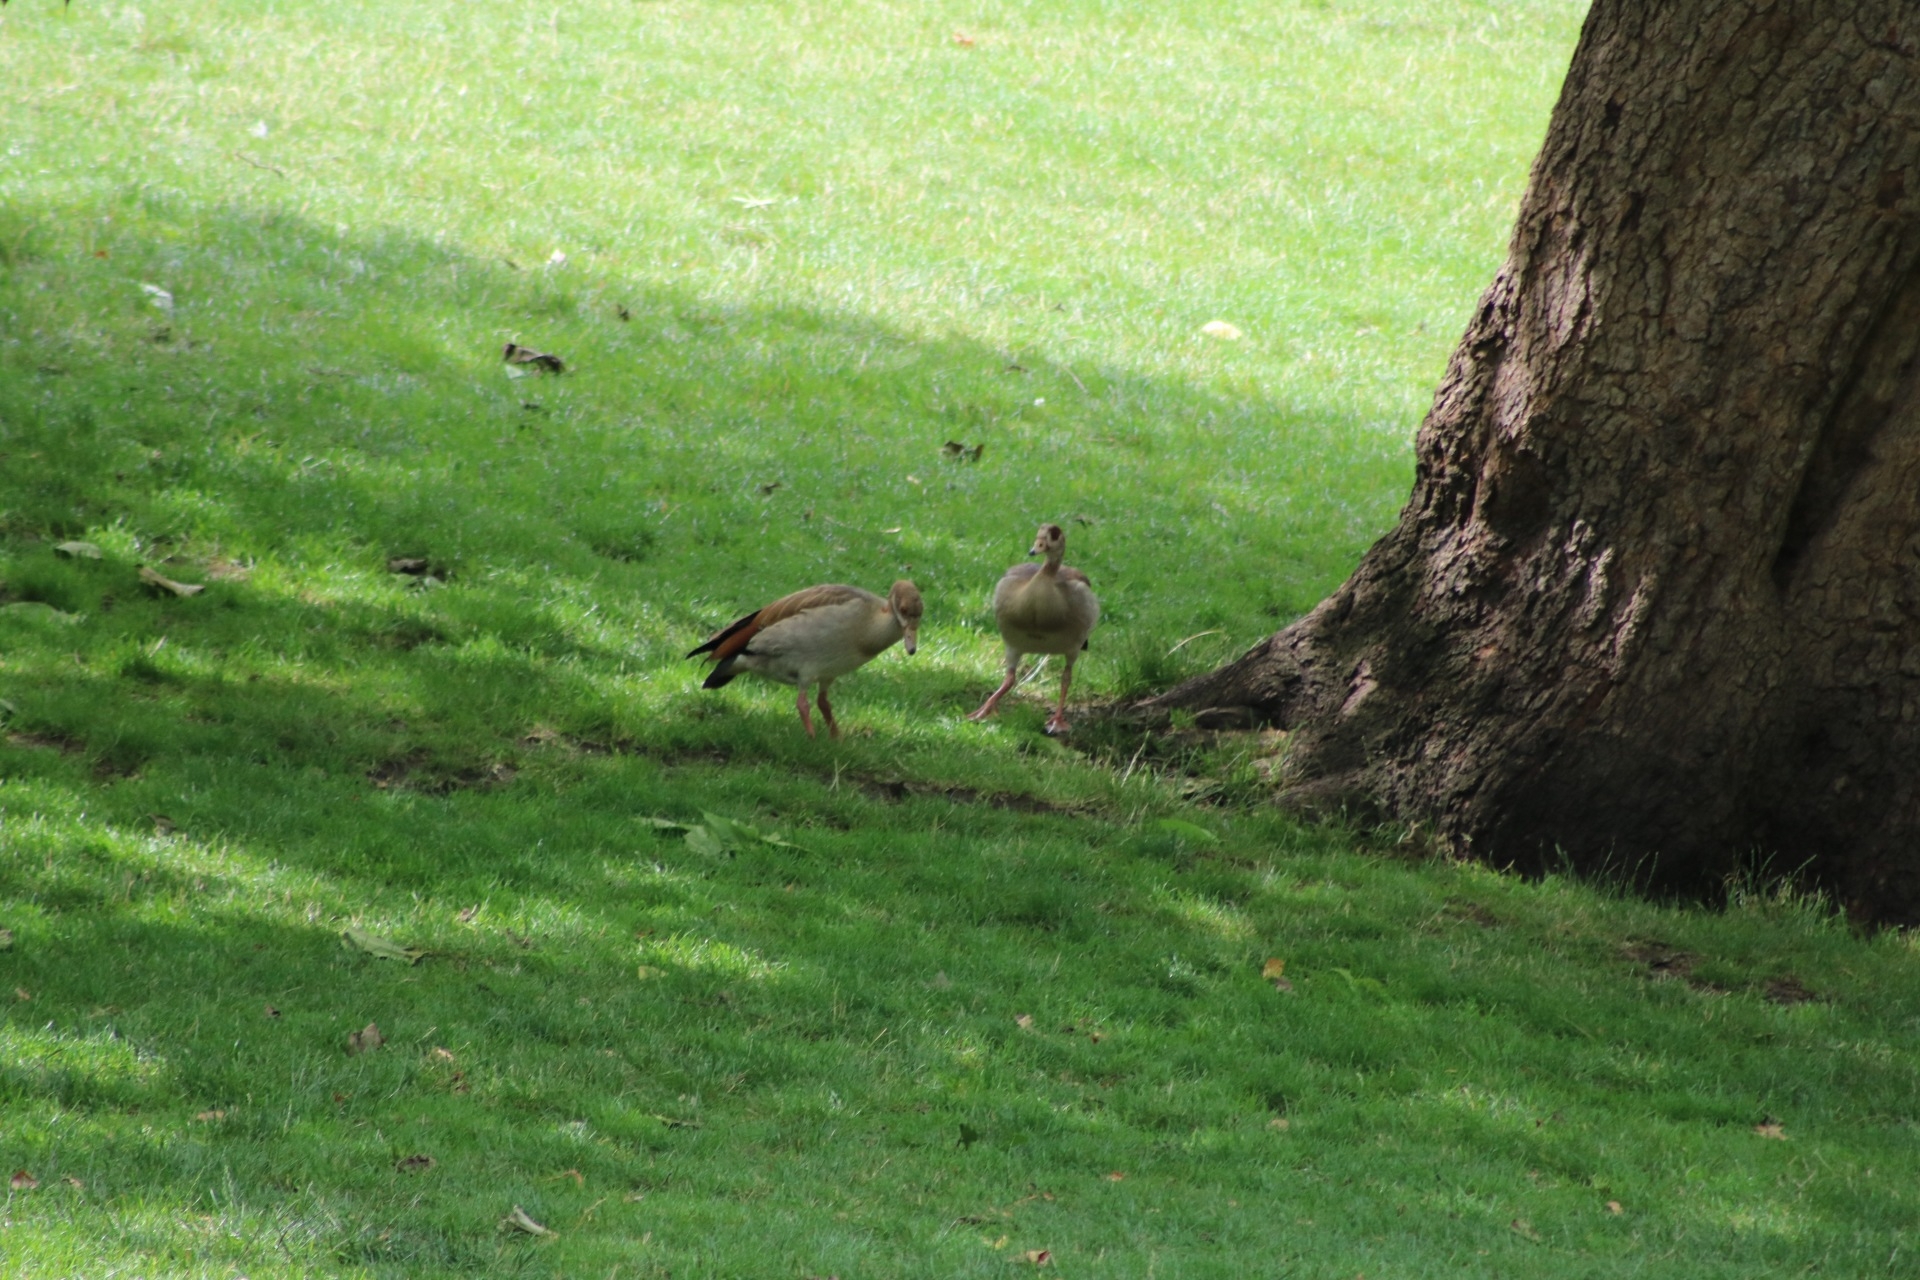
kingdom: Animalia
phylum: Chordata
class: Aves
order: Anseriformes
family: Anatidae
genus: Alopochen
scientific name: Alopochen aegyptiaca
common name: Egyptian goose
